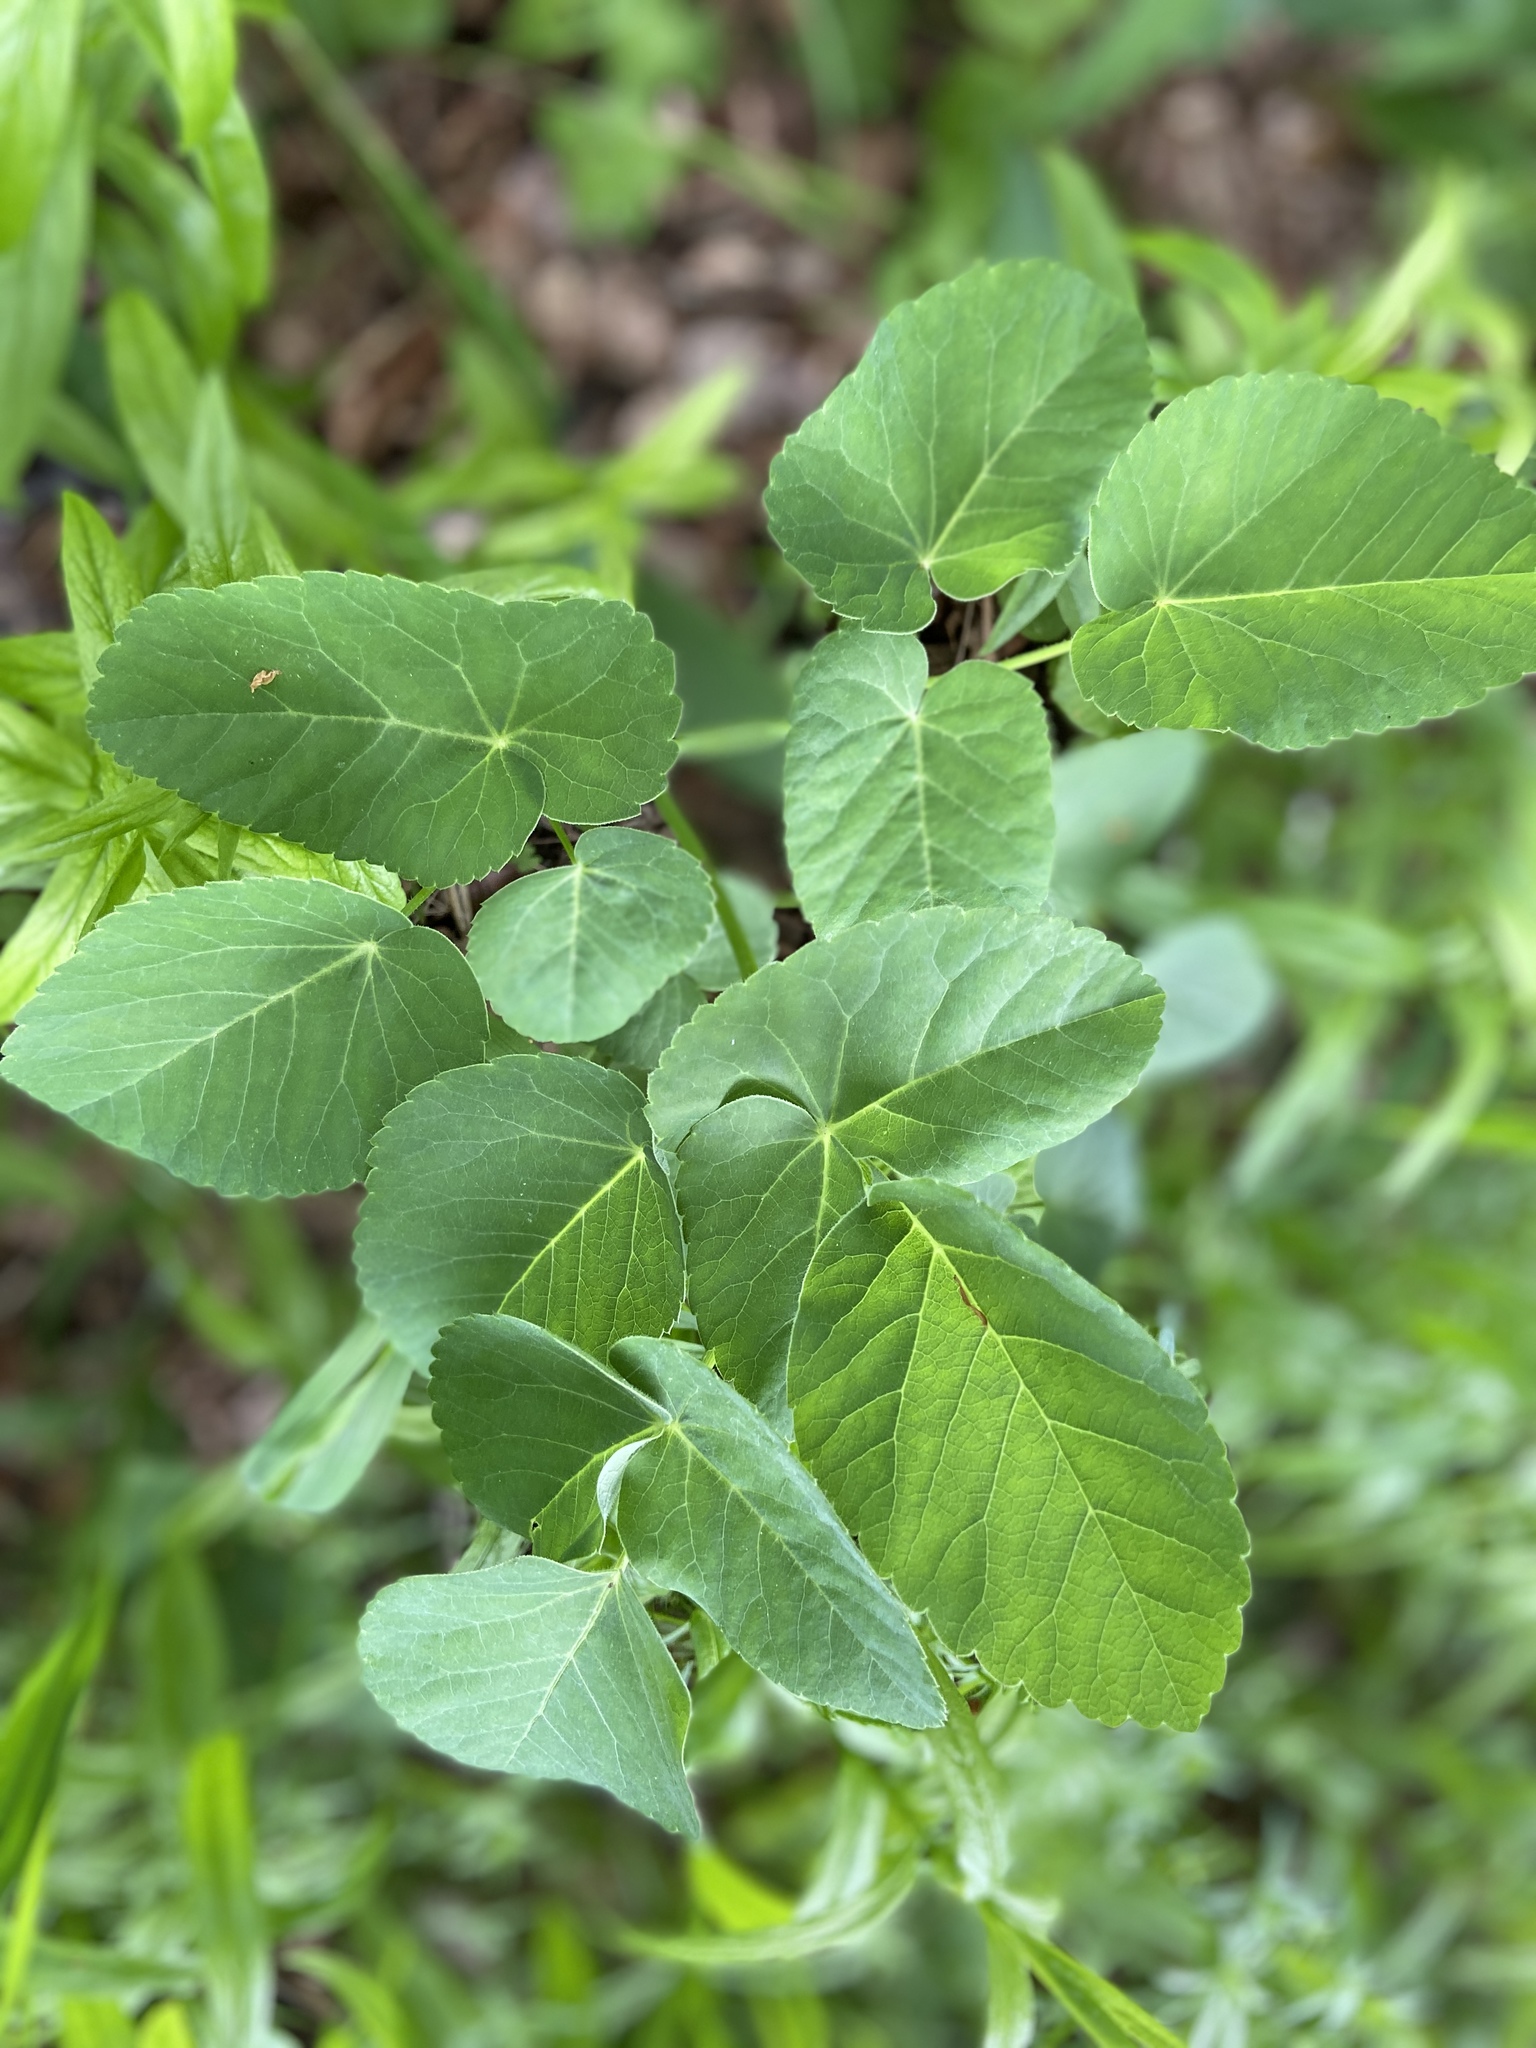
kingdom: Plantae
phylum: Tracheophyta
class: Magnoliopsida
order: Apiales
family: Apiaceae
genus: Laserpitium
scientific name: Laserpitium latifolium
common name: Broadleaf sermountain
